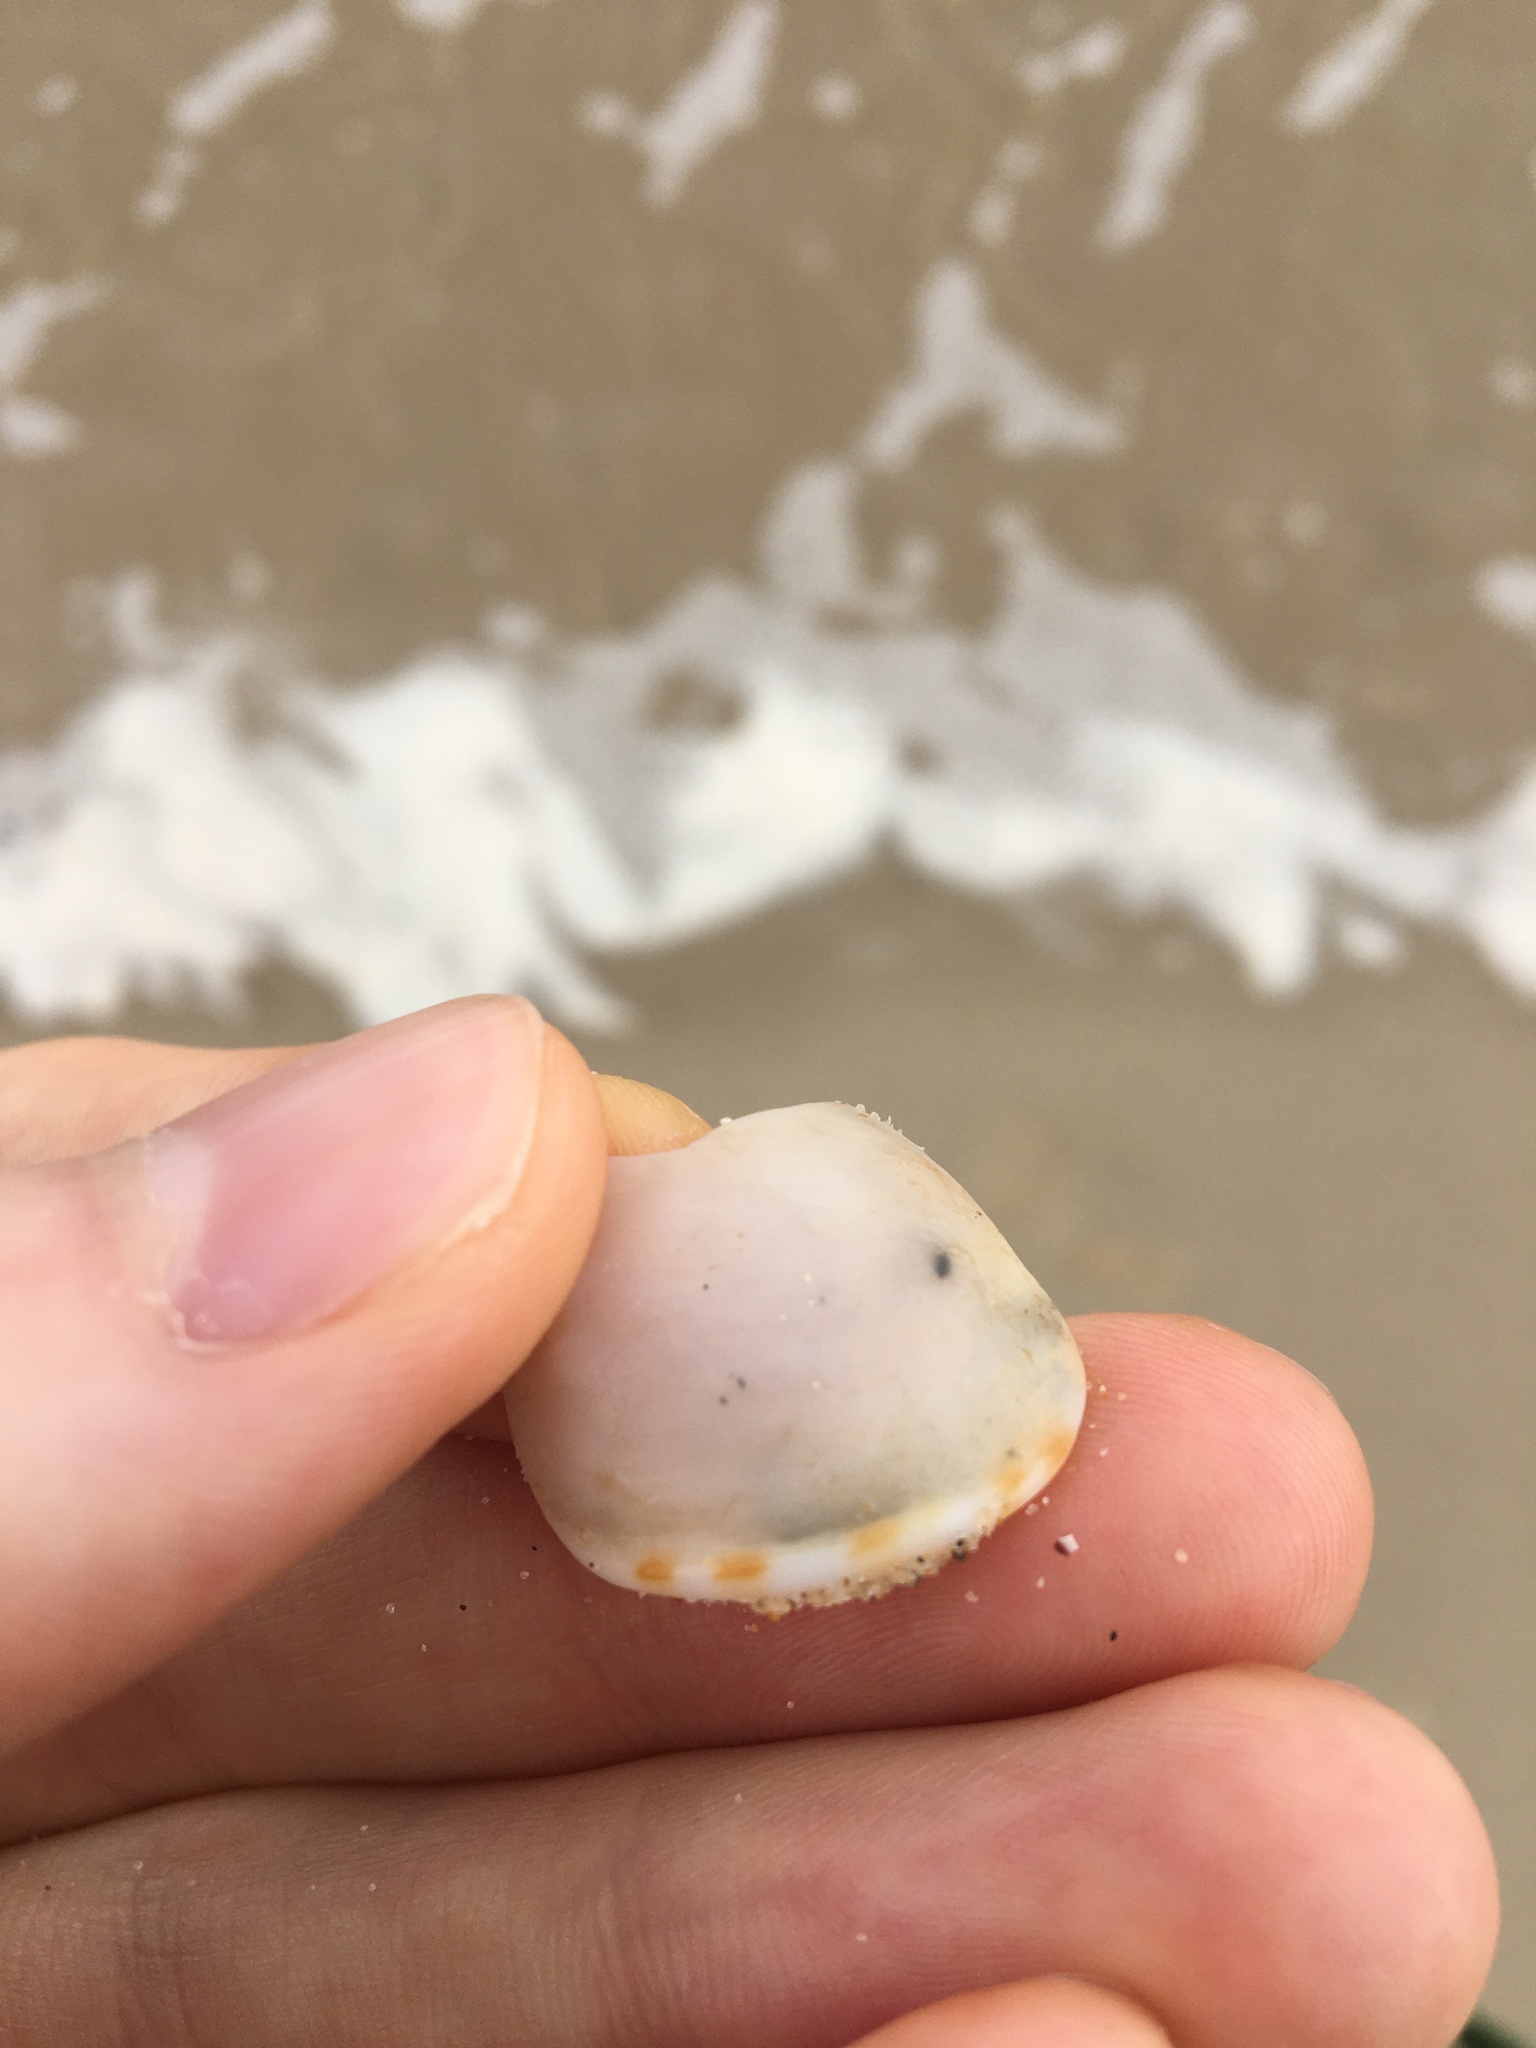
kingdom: Animalia
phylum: Mollusca
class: Gastropoda
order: Littorinimorpha
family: Cassidae
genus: Semicassis
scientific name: Semicassis labiata
